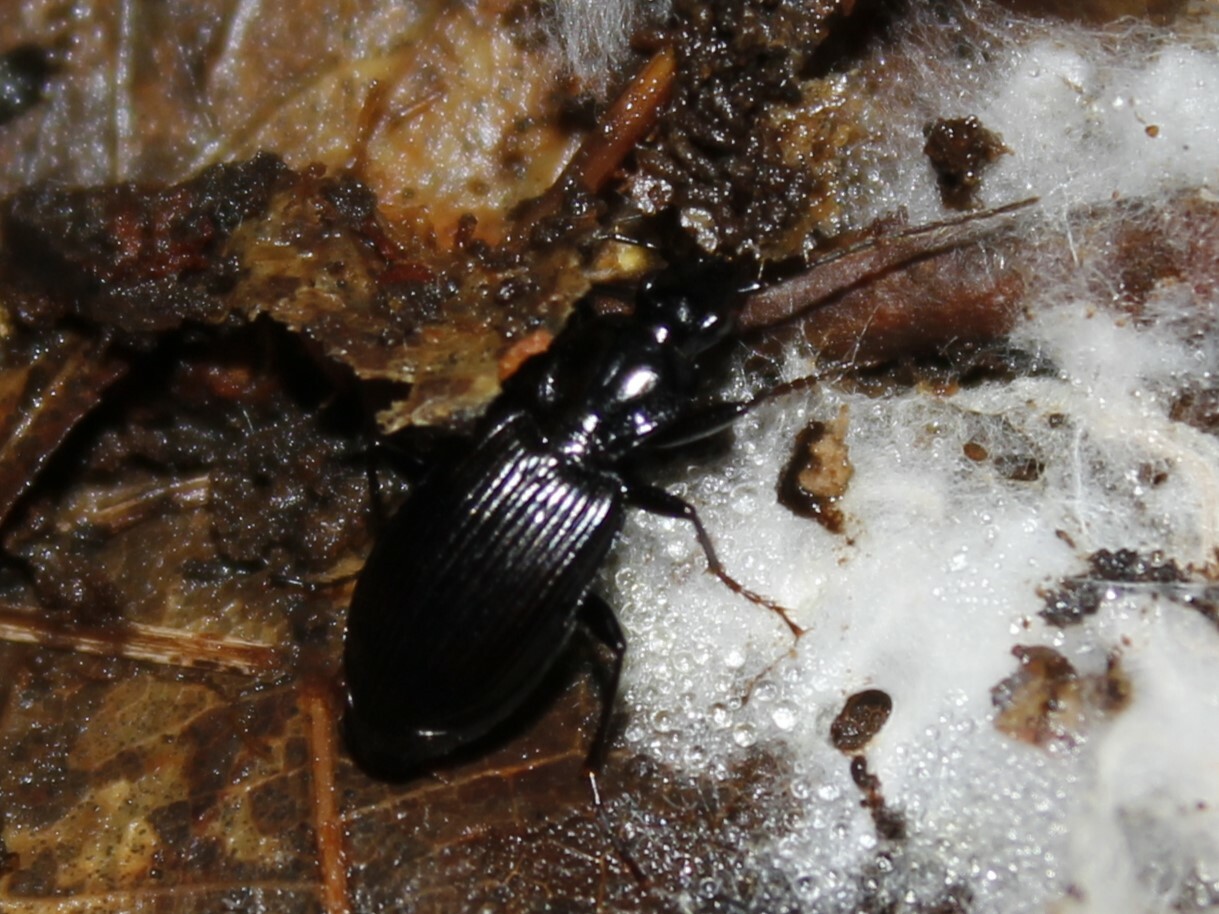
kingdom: Animalia
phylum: Arthropoda
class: Insecta
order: Coleoptera
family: Carabidae
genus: Platynus
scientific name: Platynus
